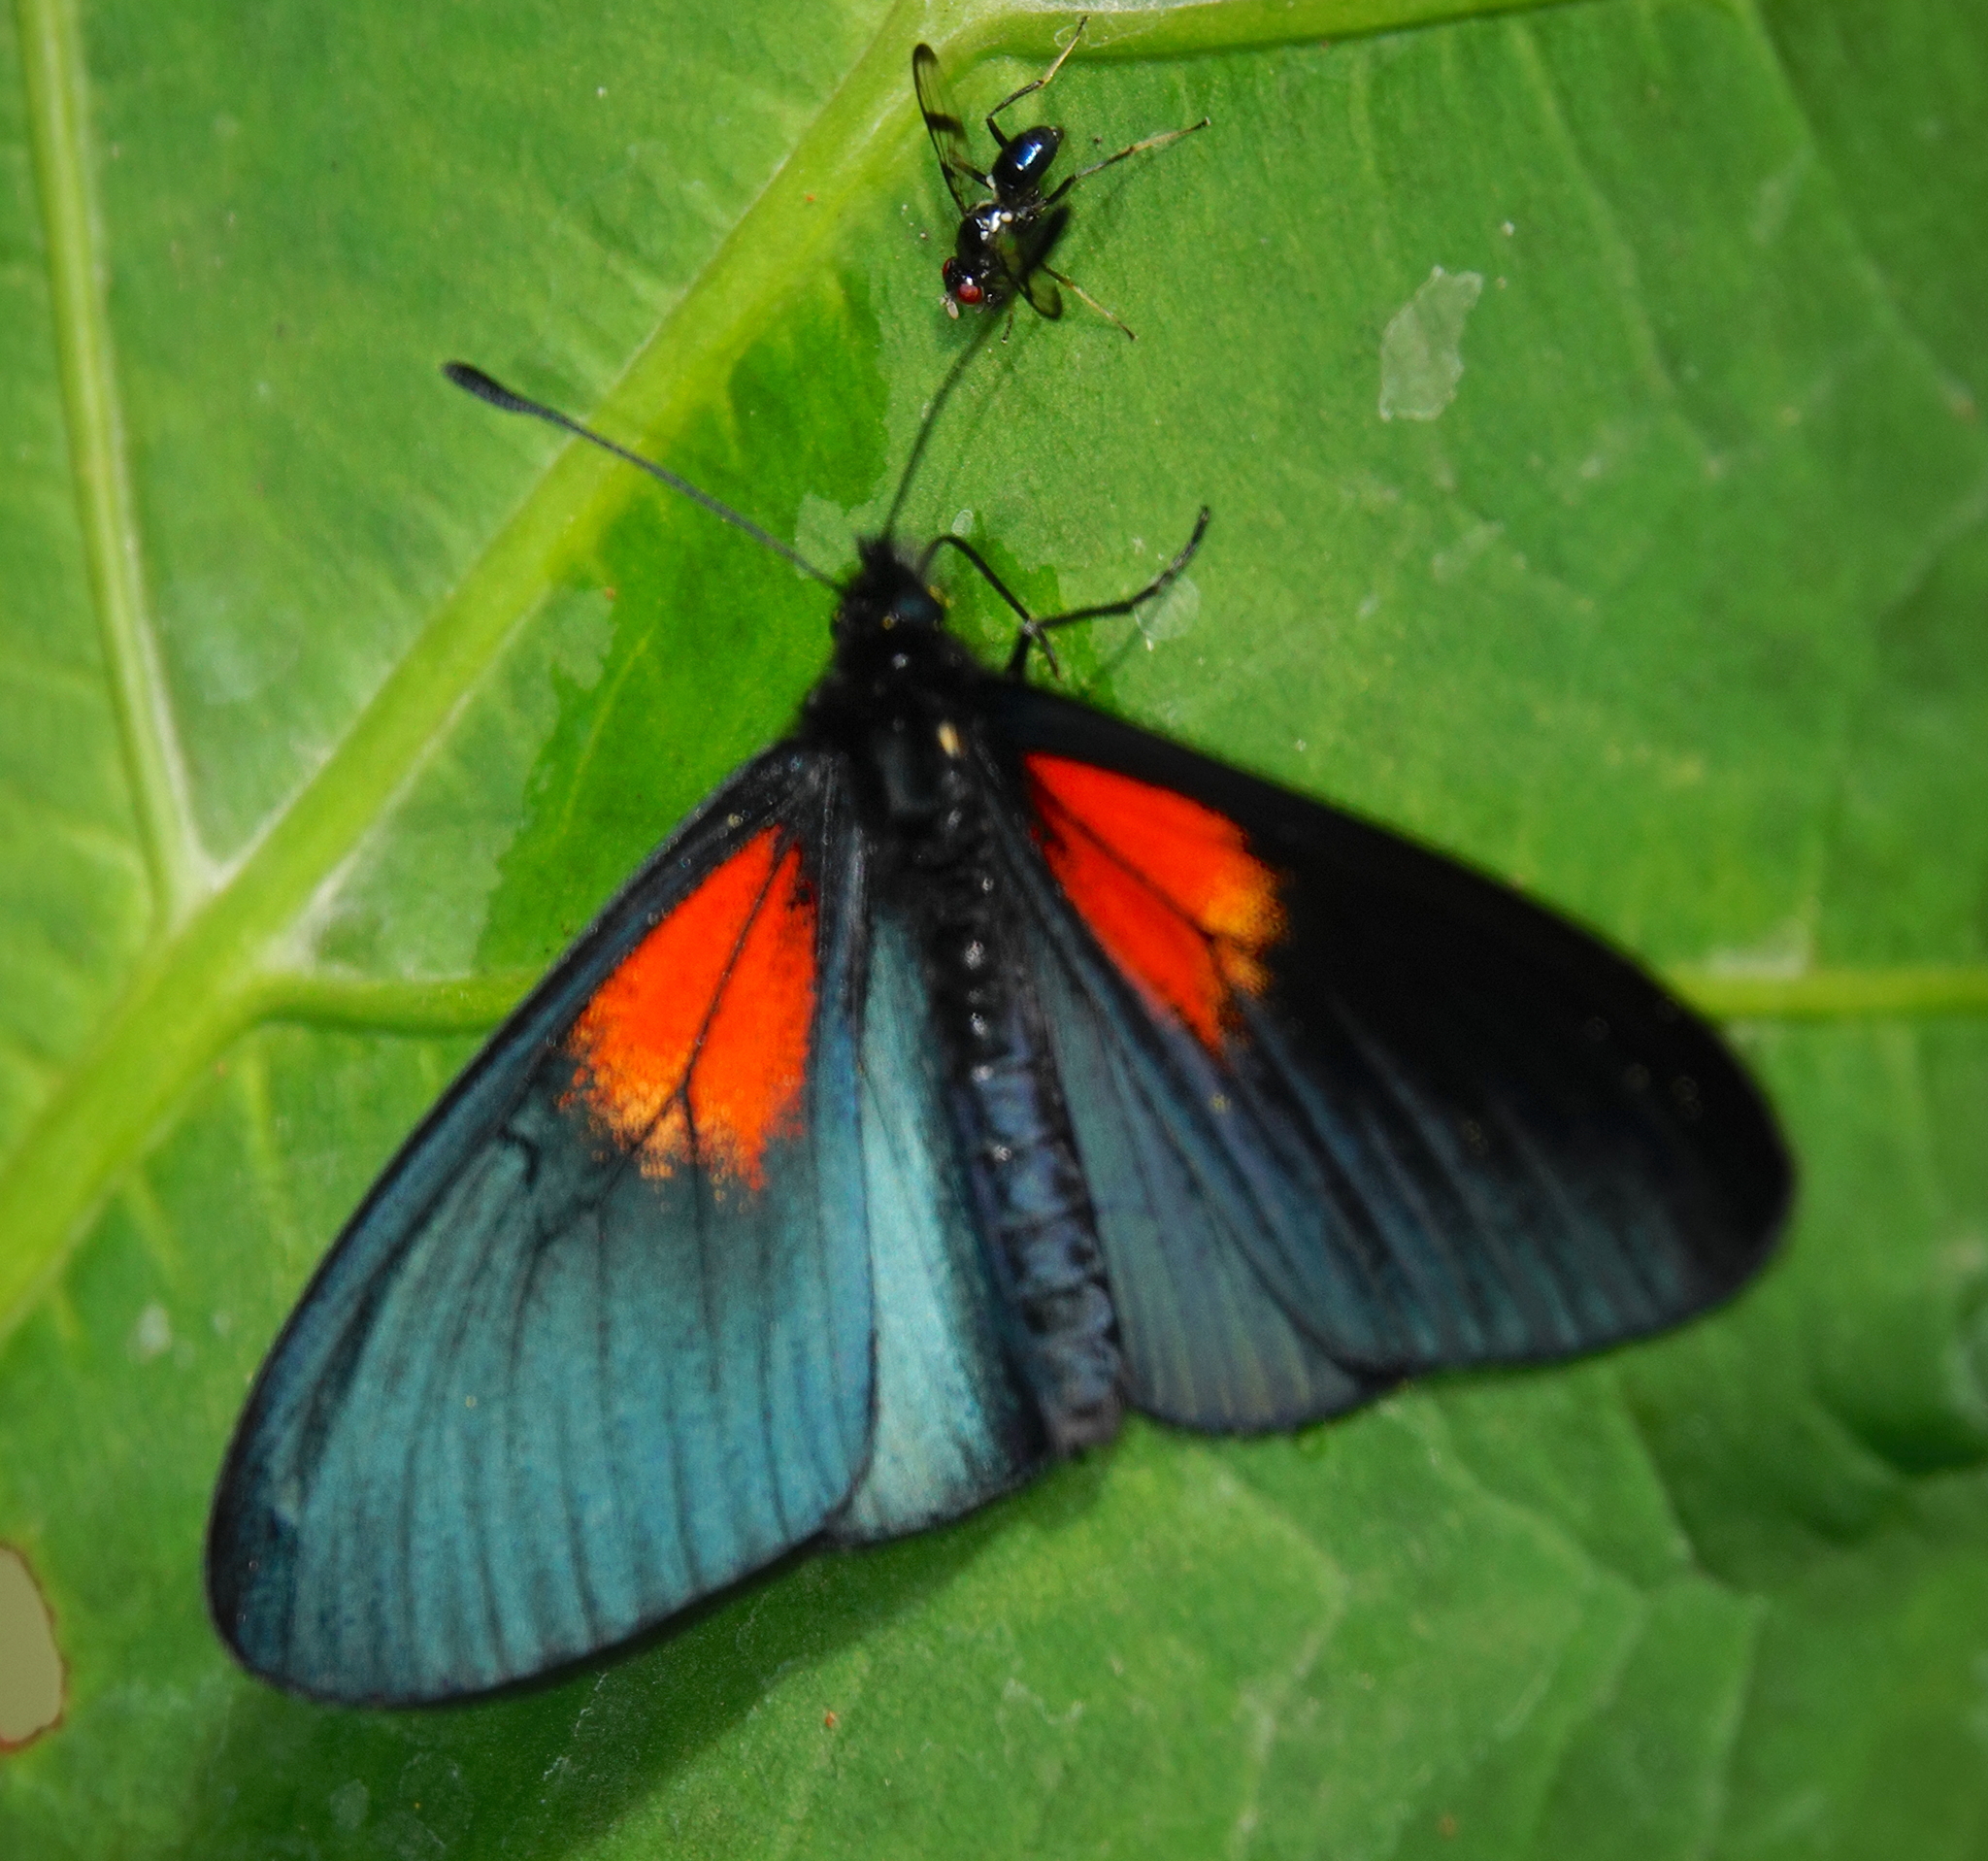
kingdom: Animalia
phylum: Arthropoda
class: Insecta
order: Lepidoptera
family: Nymphalidae
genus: Acraea
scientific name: Acraea Altinote ozomene
